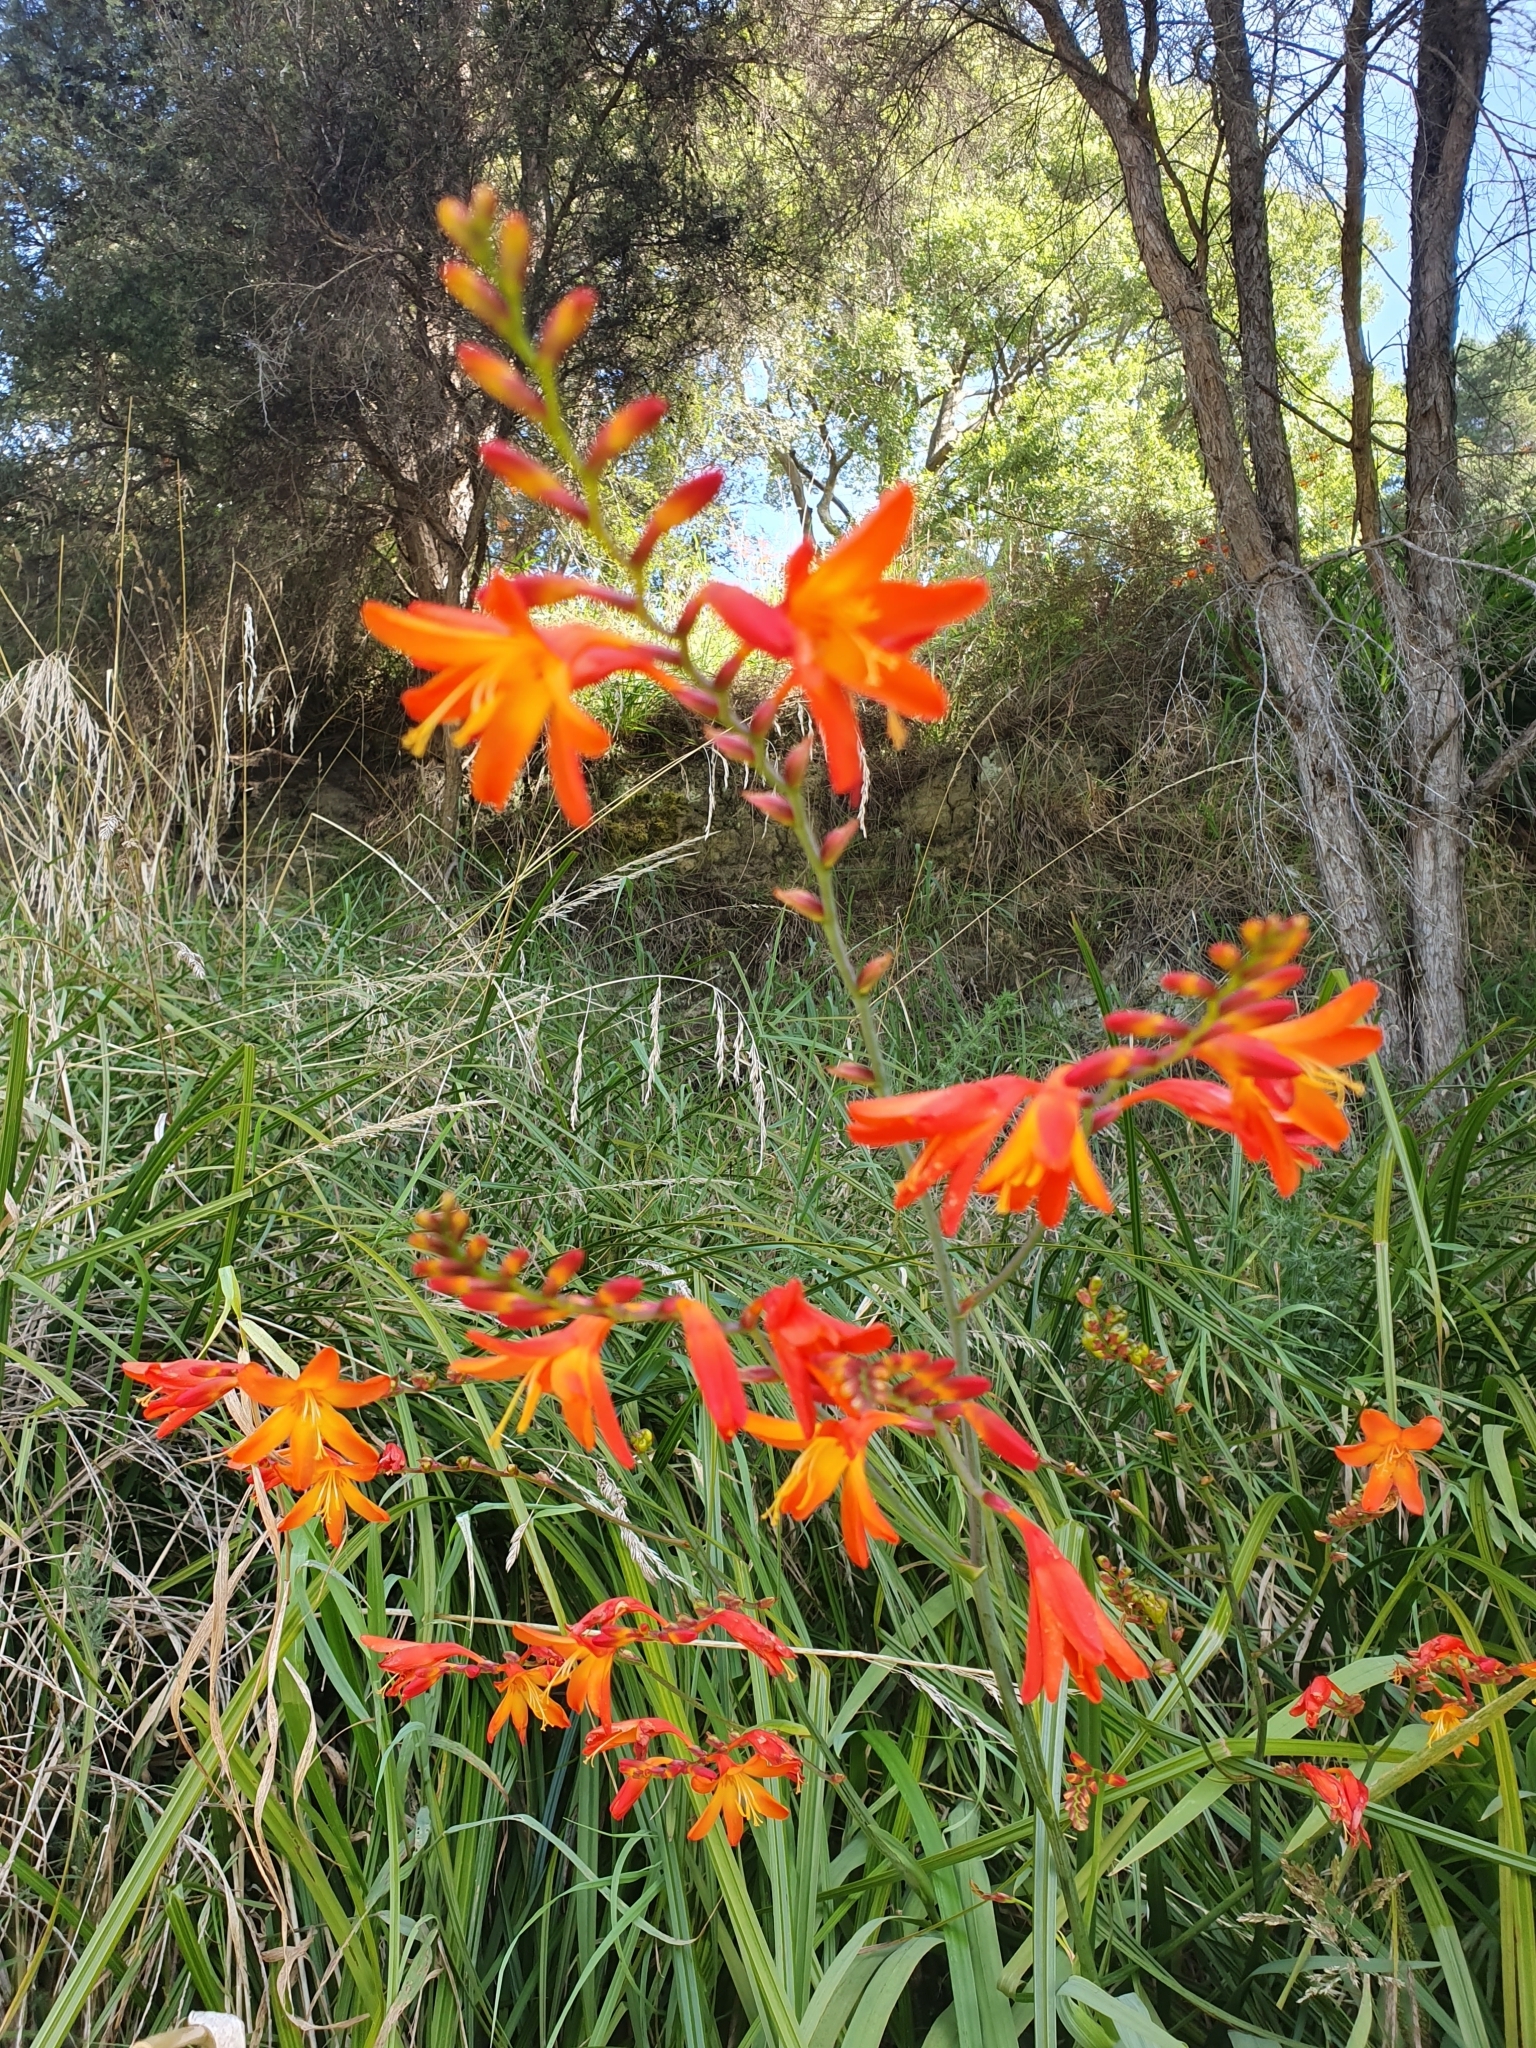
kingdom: Plantae
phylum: Tracheophyta
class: Liliopsida
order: Asparagales
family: Iridaceae
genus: Crocosmia
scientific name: Crocosmia crocosmiiflora
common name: Montbretia
